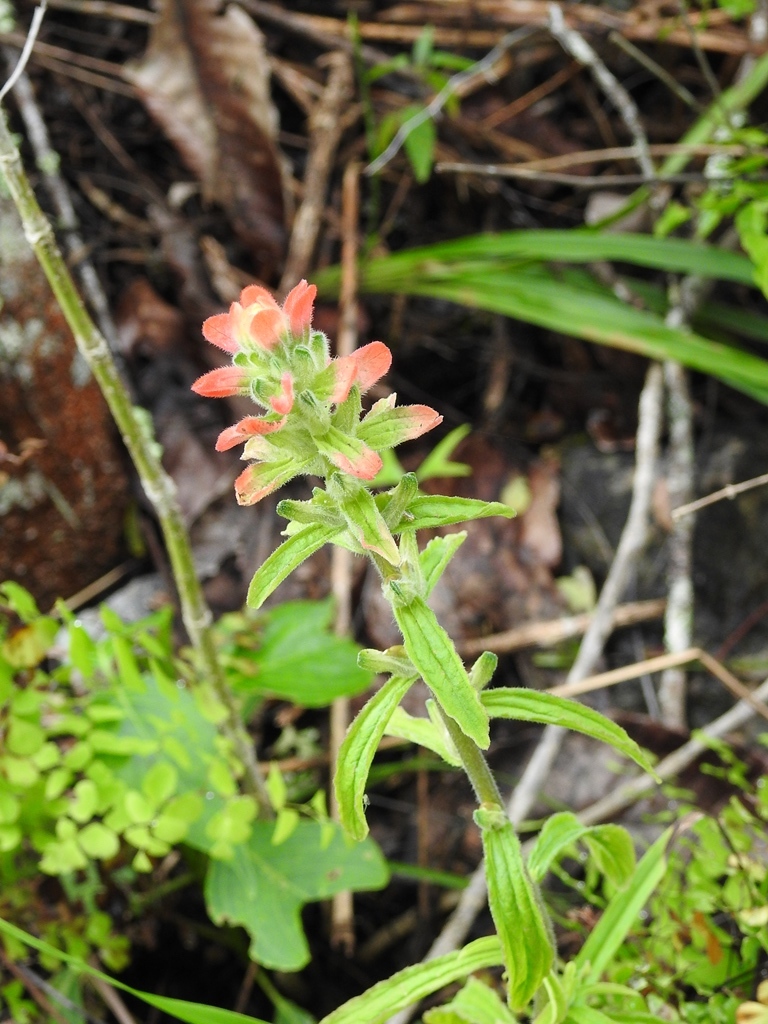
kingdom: Plantae
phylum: Tracheophyta
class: Magnoliopsida
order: Lamiales
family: Orobanchaceae
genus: Castilleja
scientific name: Castilleja arvensis
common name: Indian paintbrush
